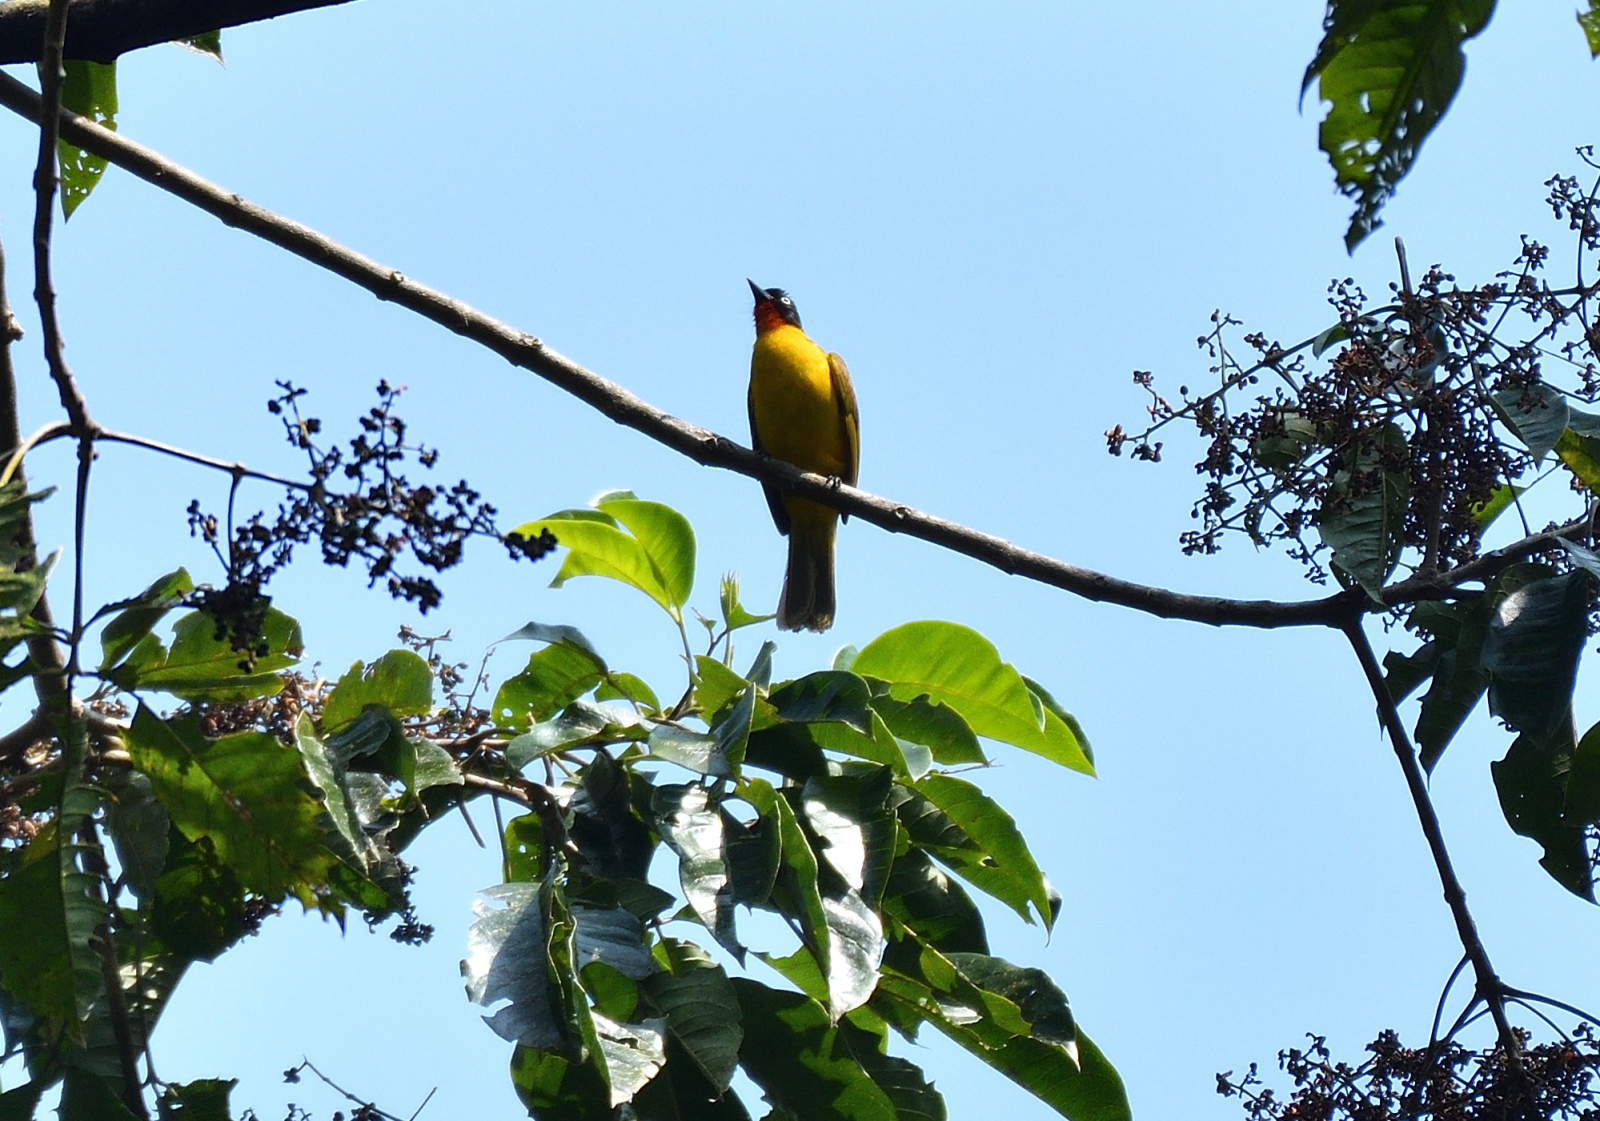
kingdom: Animalia
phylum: Chordata
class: Aves
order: Passeriformes
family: Pycnonotidae
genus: Pycnonotus
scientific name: Pycnonotus gularis
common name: Flame-throated bulbul
